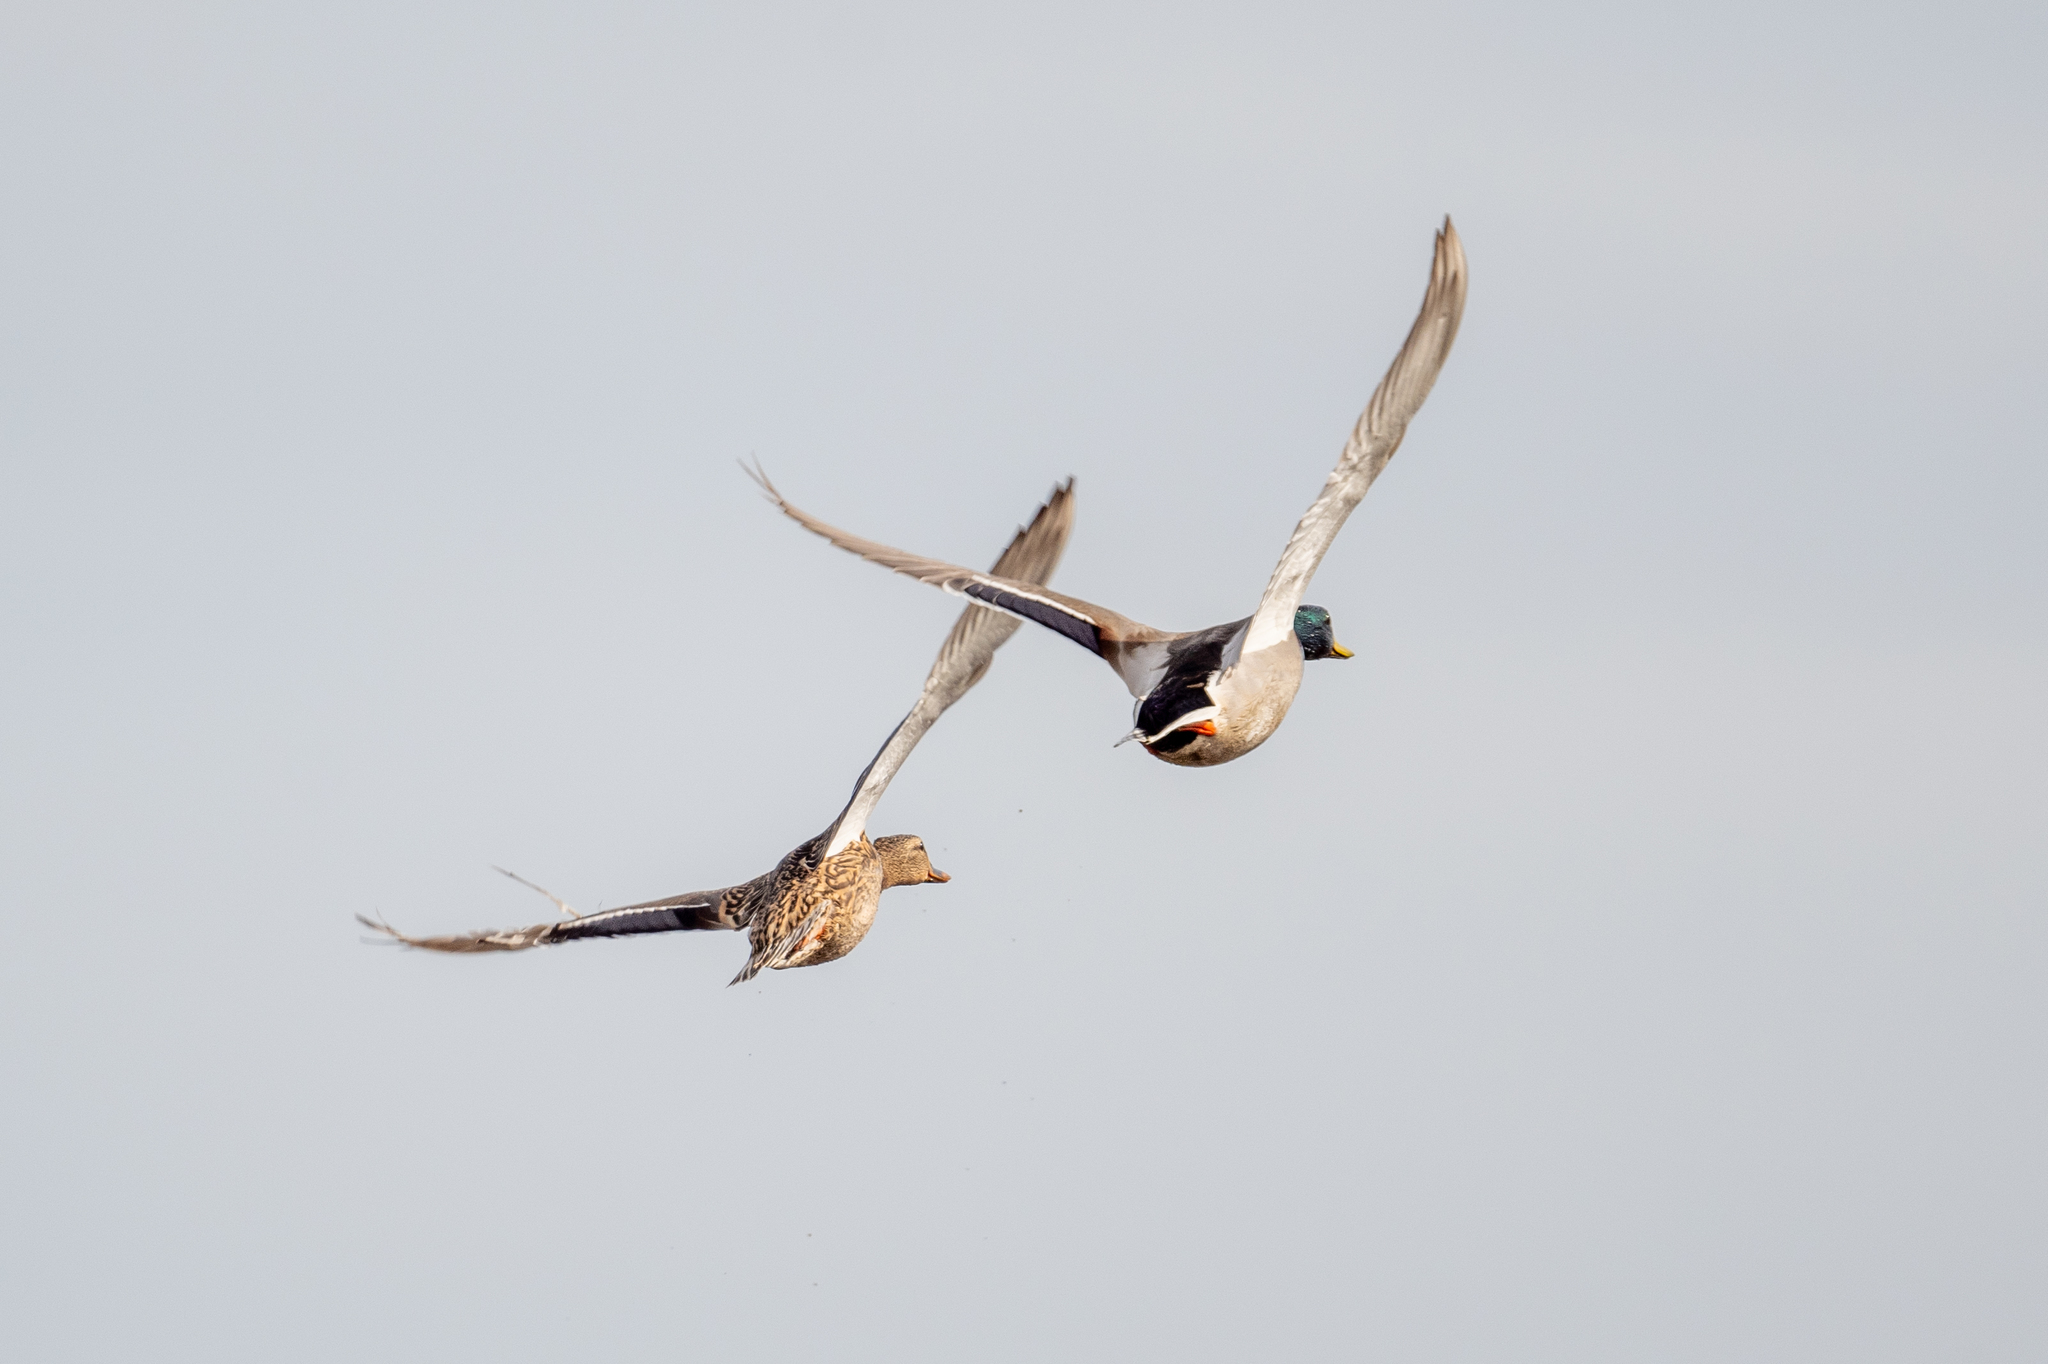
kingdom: Animalia
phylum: Chordata
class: Aves
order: Anseriformes
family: Anatidae
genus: Anas
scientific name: Anas platyrhynchos
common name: Mallard
